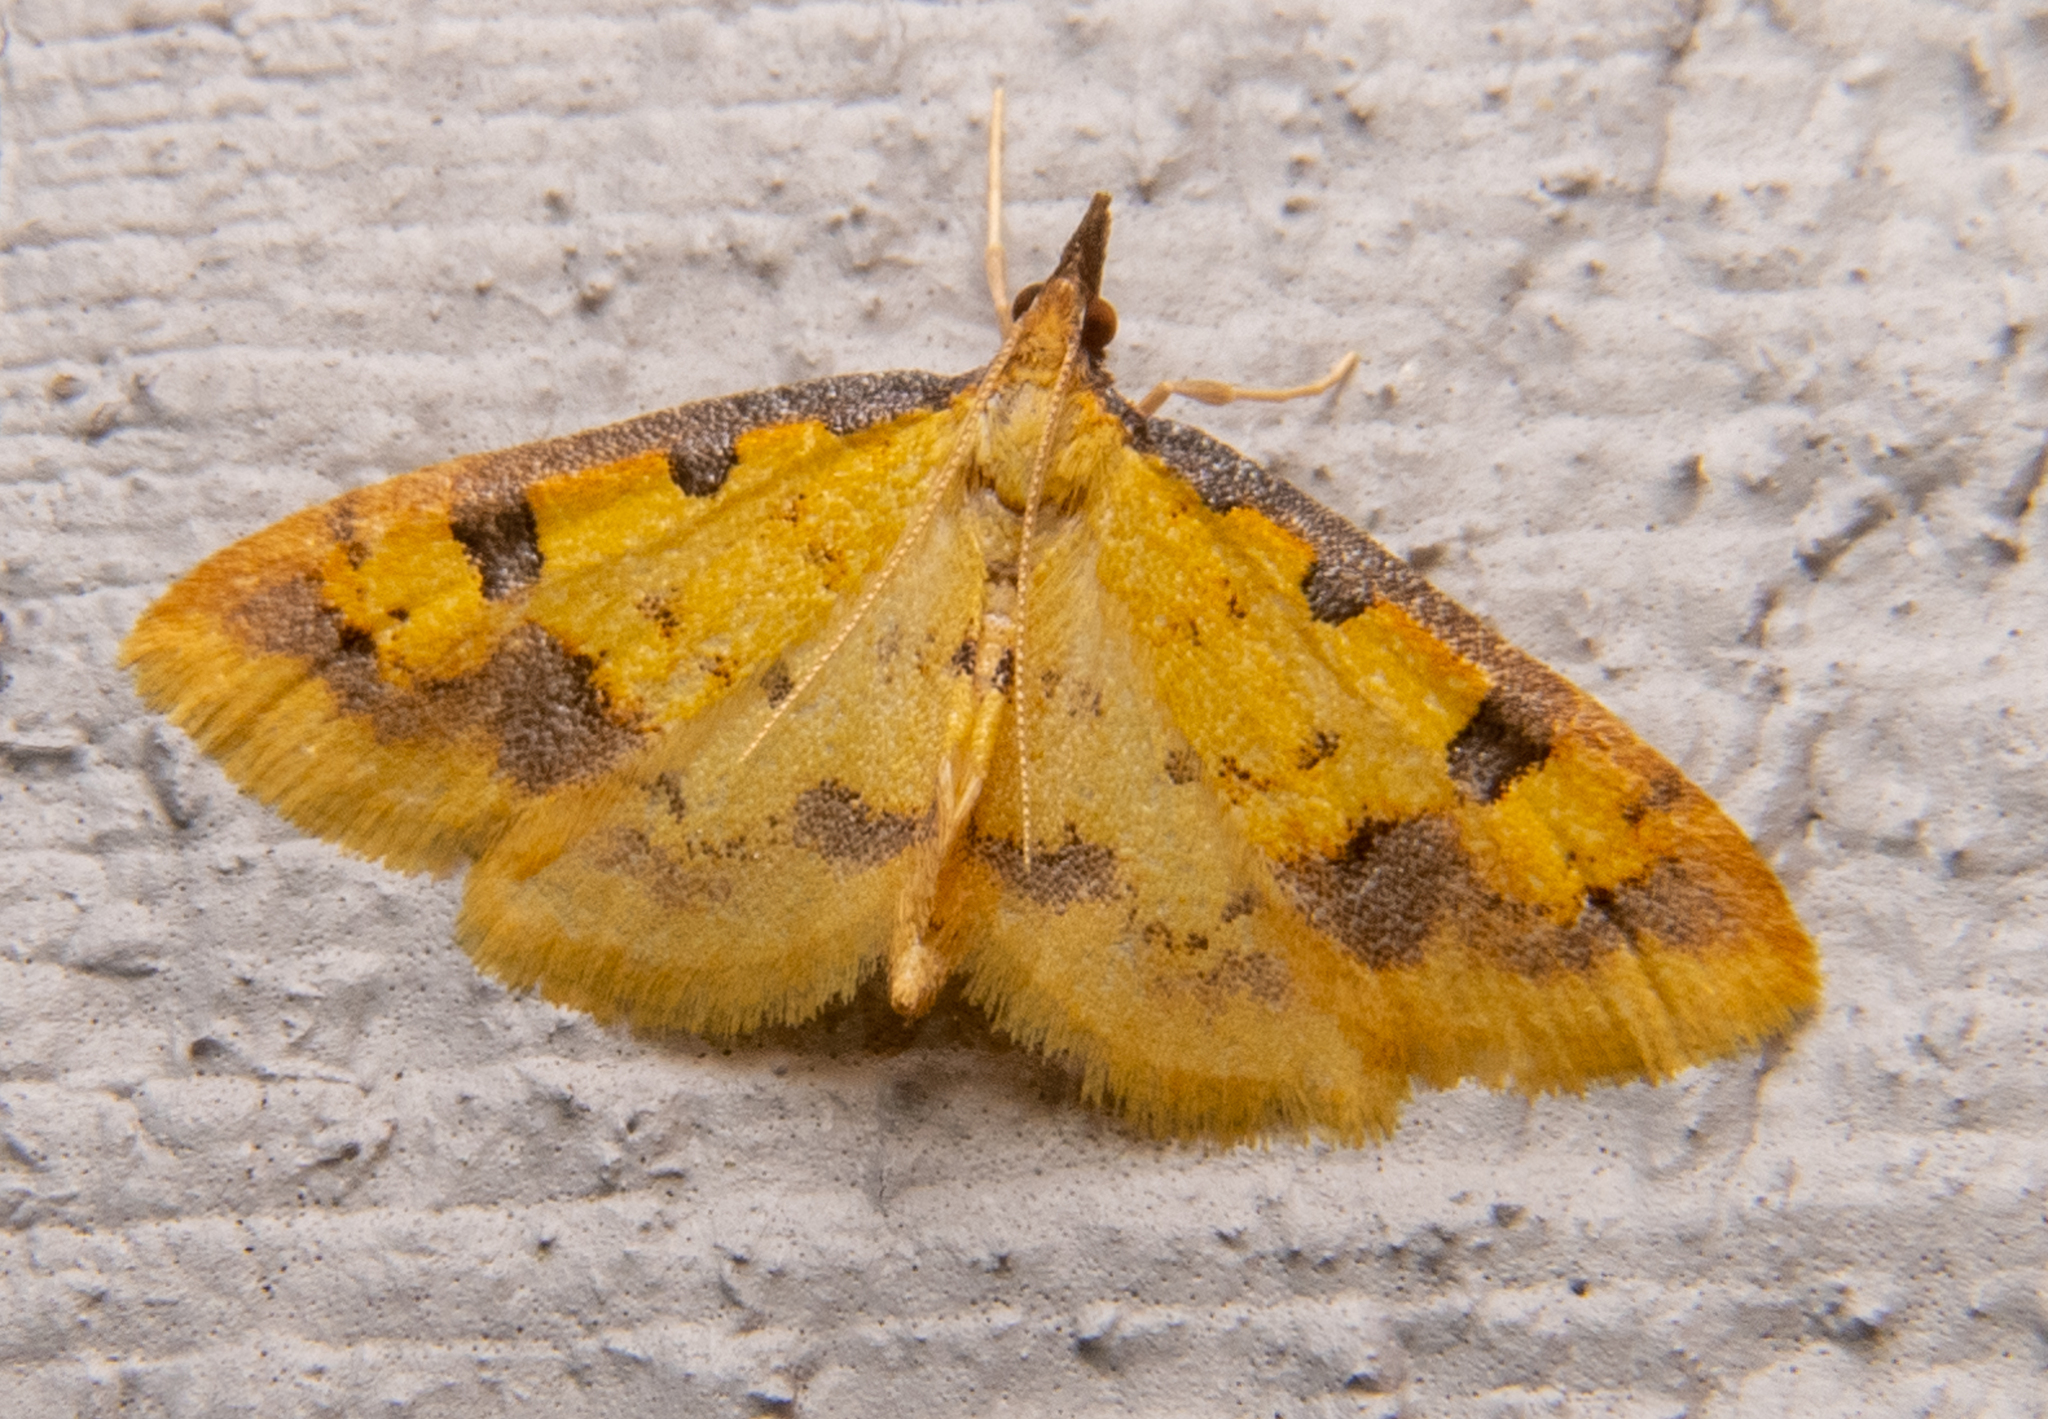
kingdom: Animalia
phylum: Arthropoda
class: Insecta
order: Lepidoptera
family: Crambidae
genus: Choristostigma
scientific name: Choristostigma zephyralis
